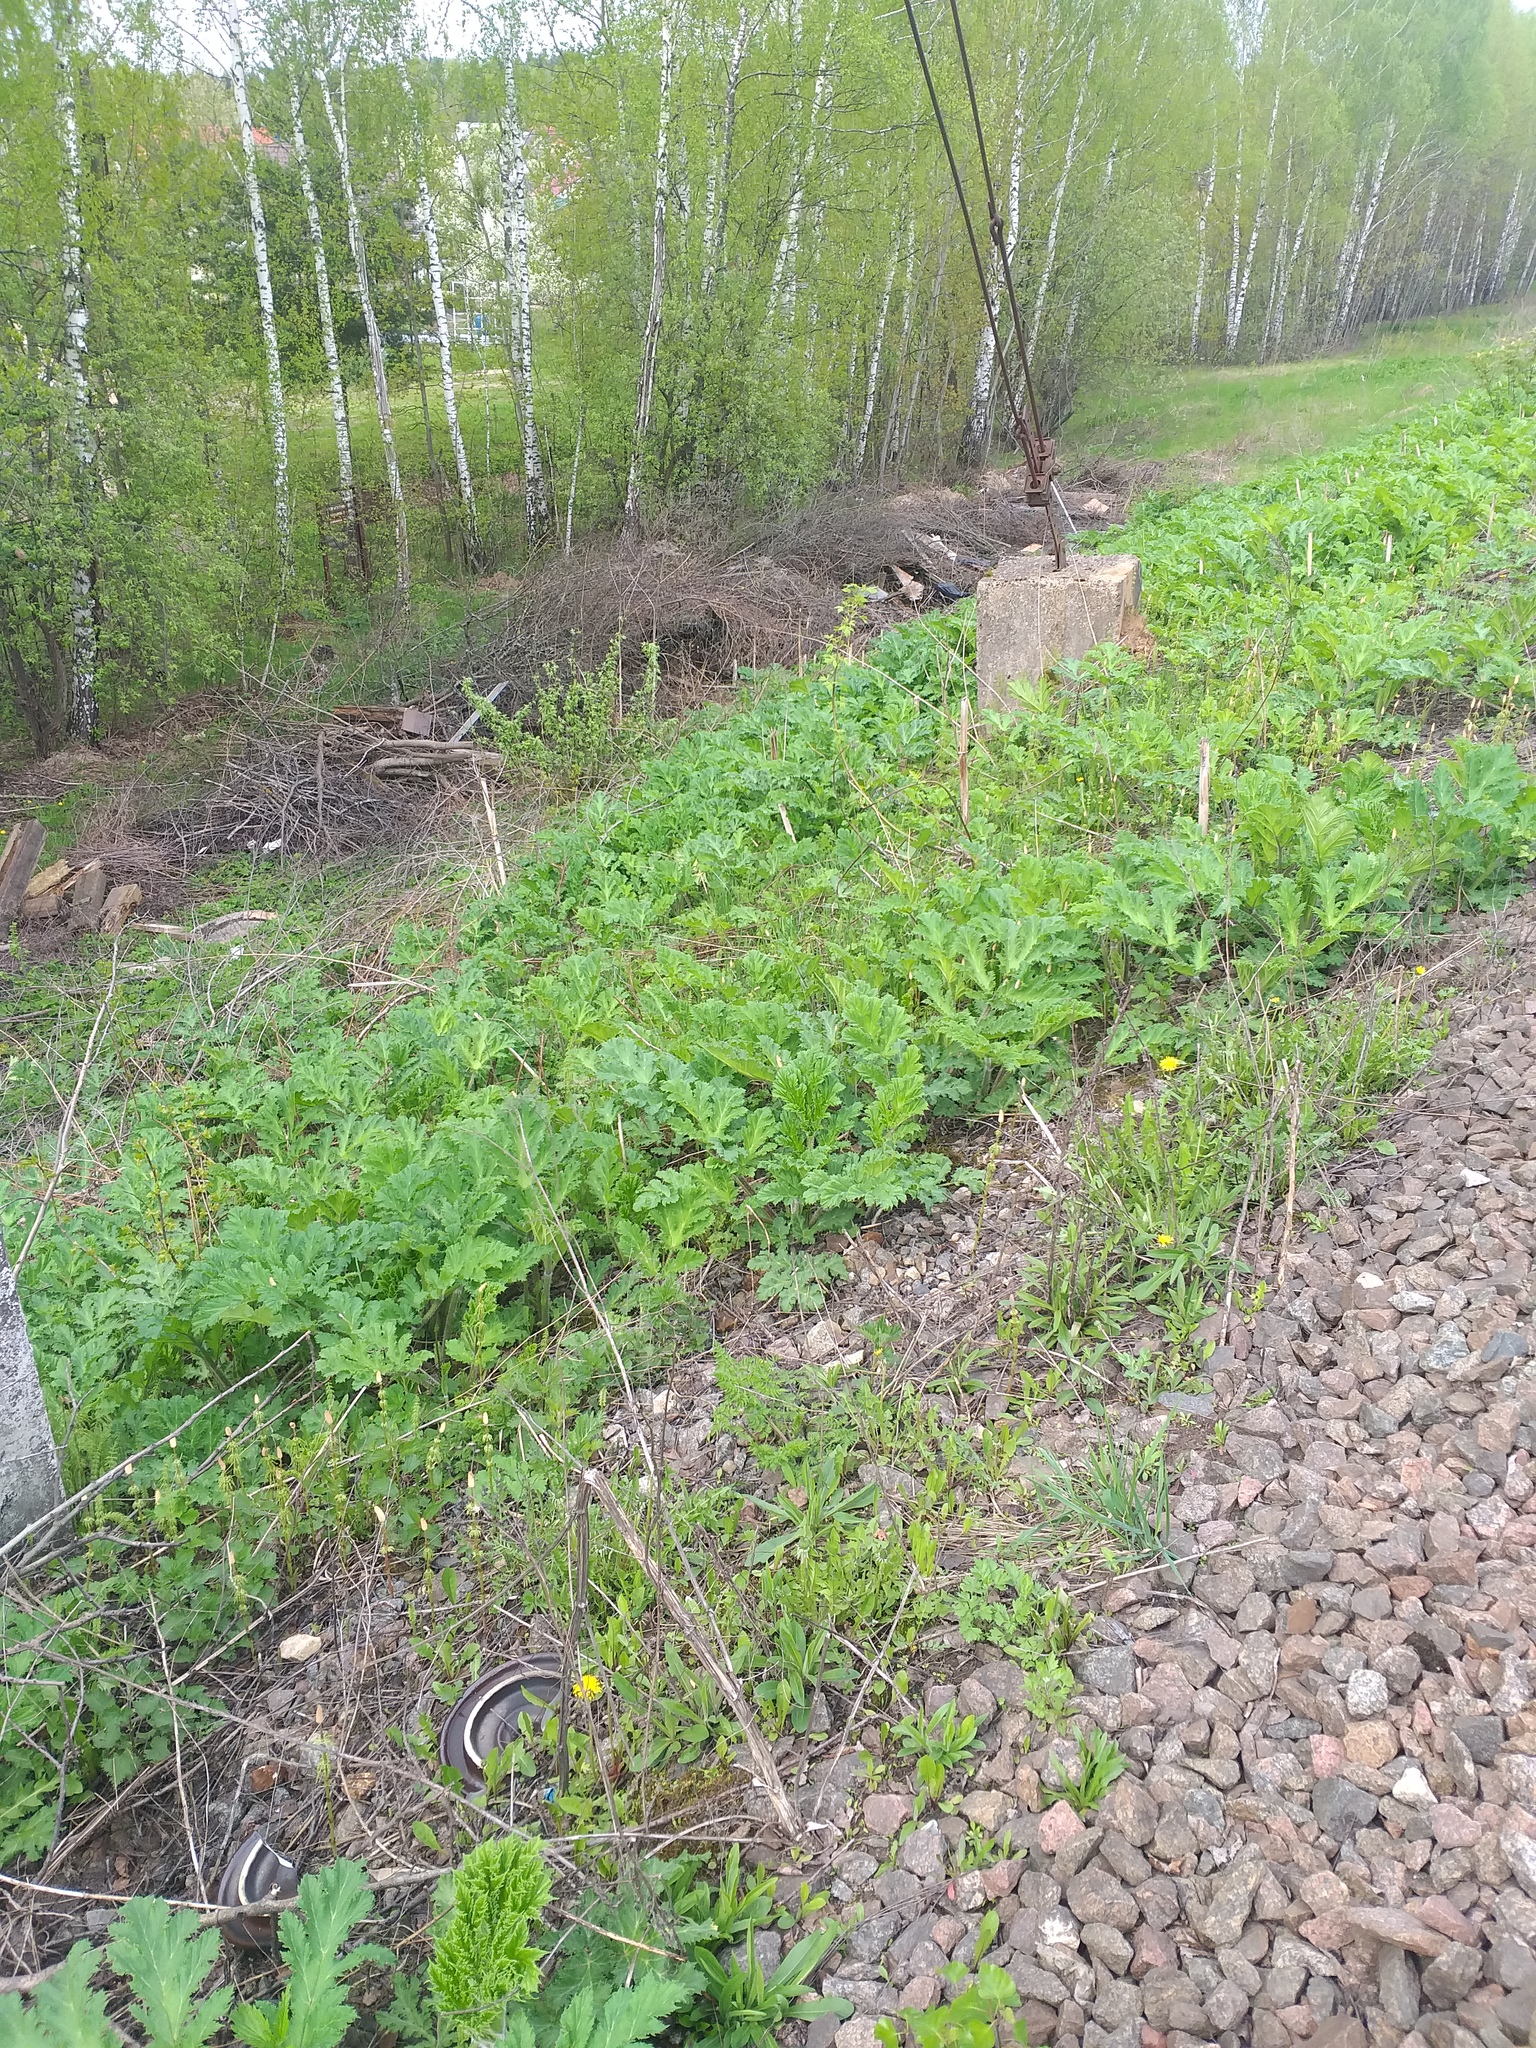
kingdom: Plantae
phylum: Tracheophyta
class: Magnoliopsida
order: Apiales
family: Apiaceae
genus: Heracleum
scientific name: Heracleum sosnowskyi
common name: Sosnowsky's hogweed
